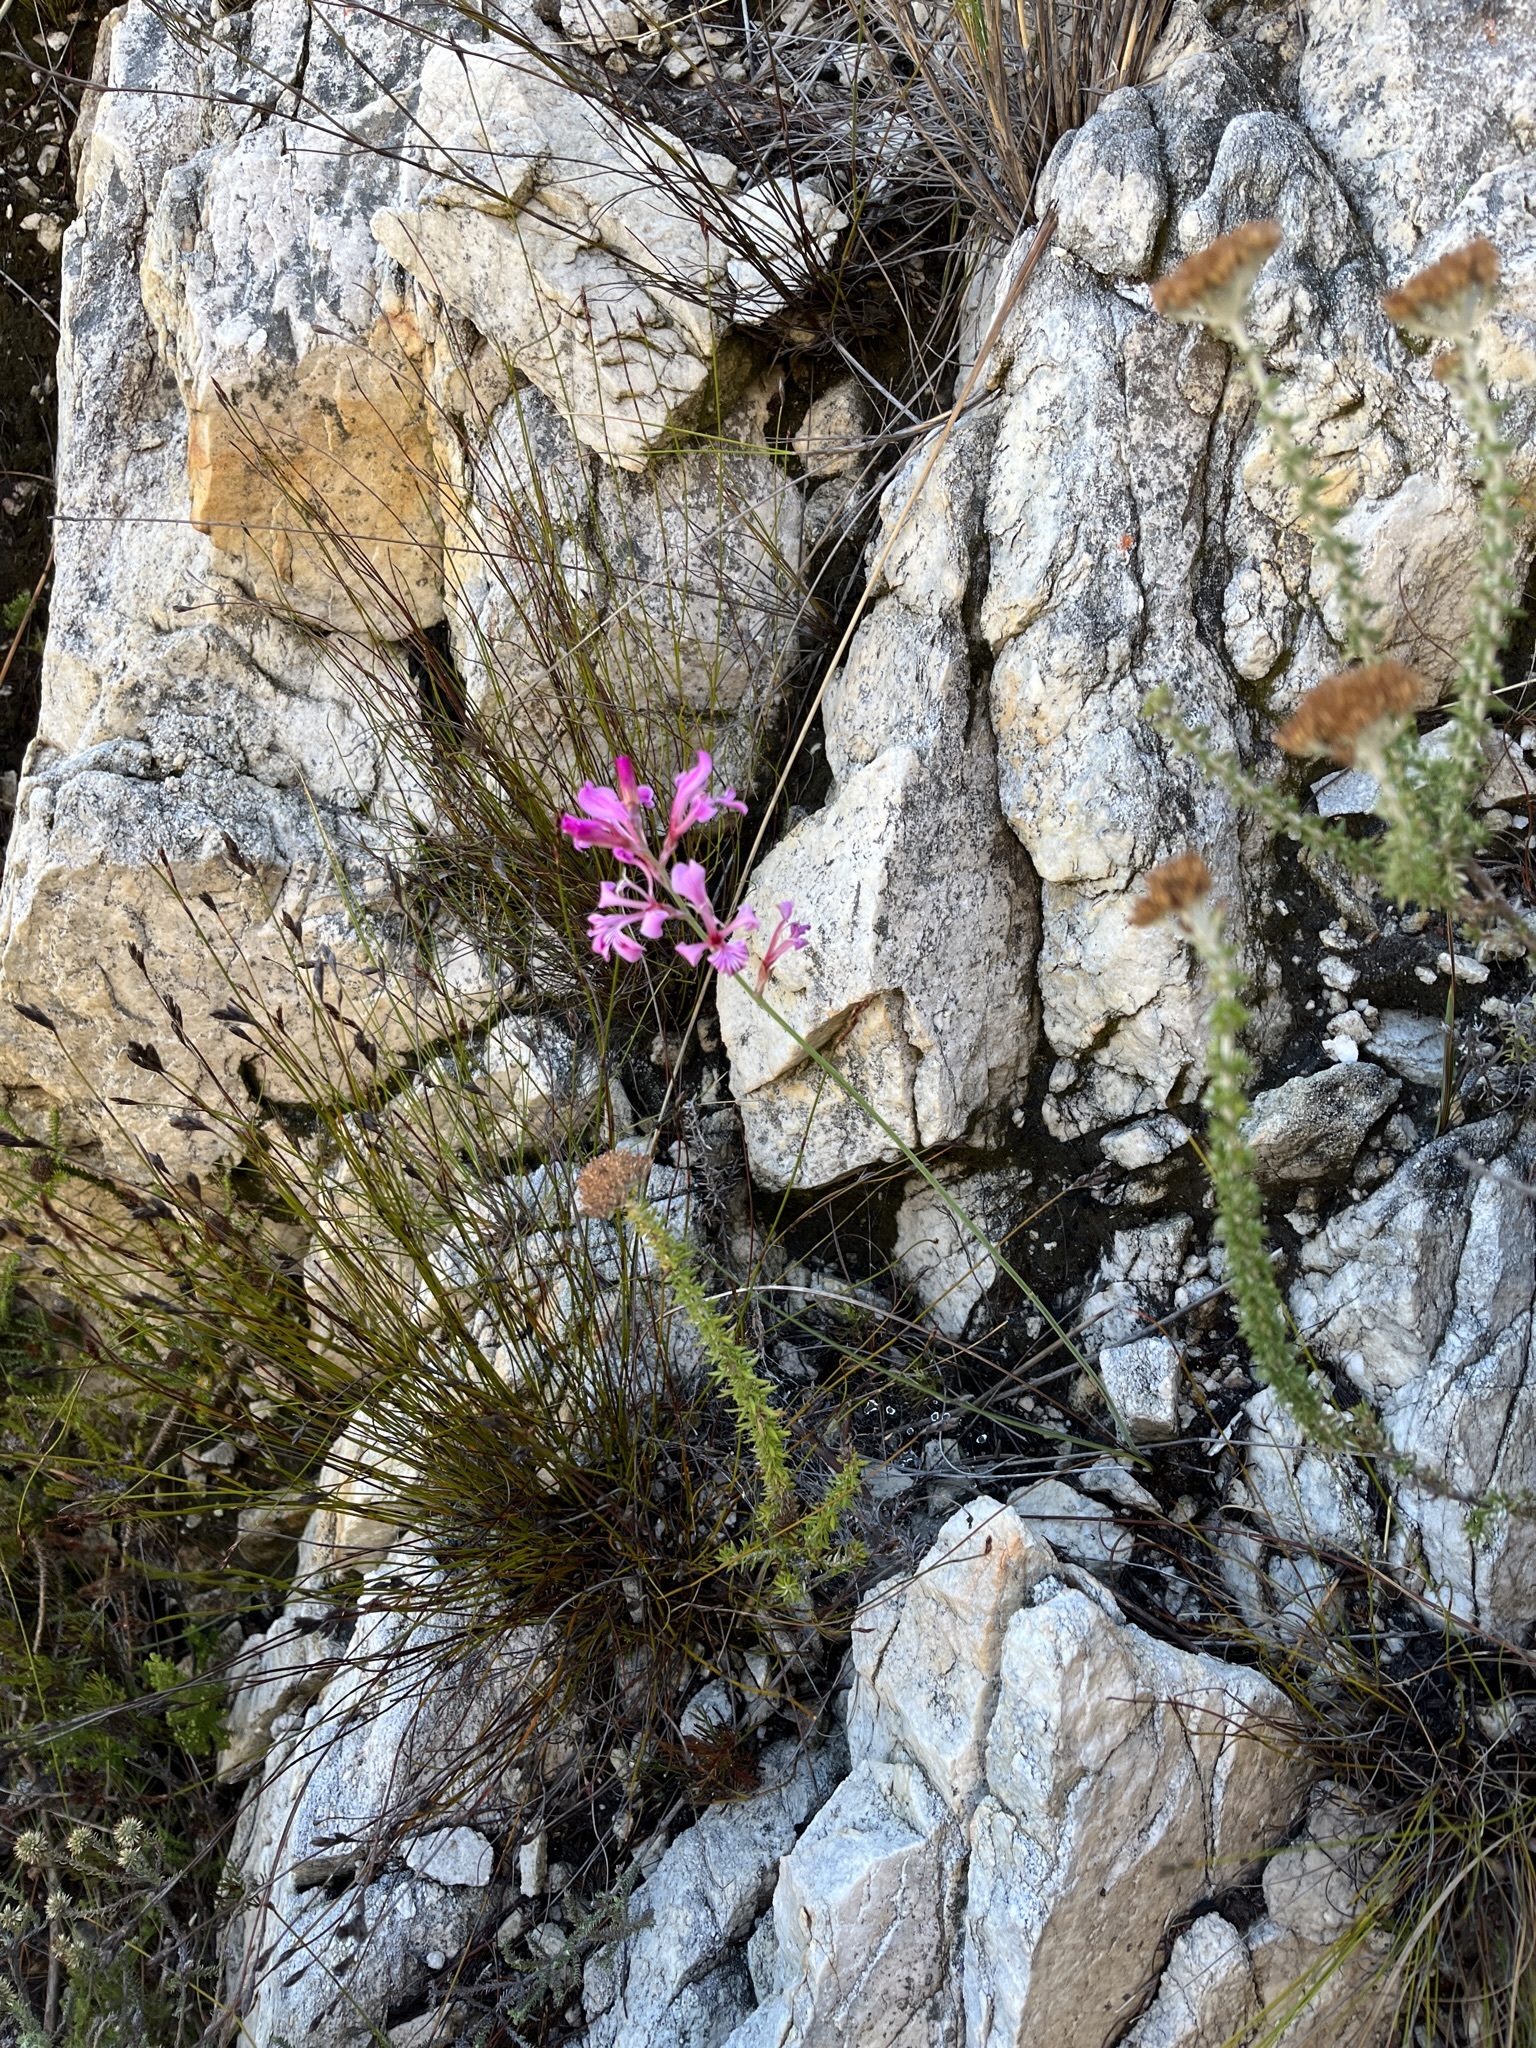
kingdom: Plantae
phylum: Tracheophyta
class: Liliopsida
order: Asparagales
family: Iridaceae
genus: Tritoniopsis
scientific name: Tritoniopsis lata
